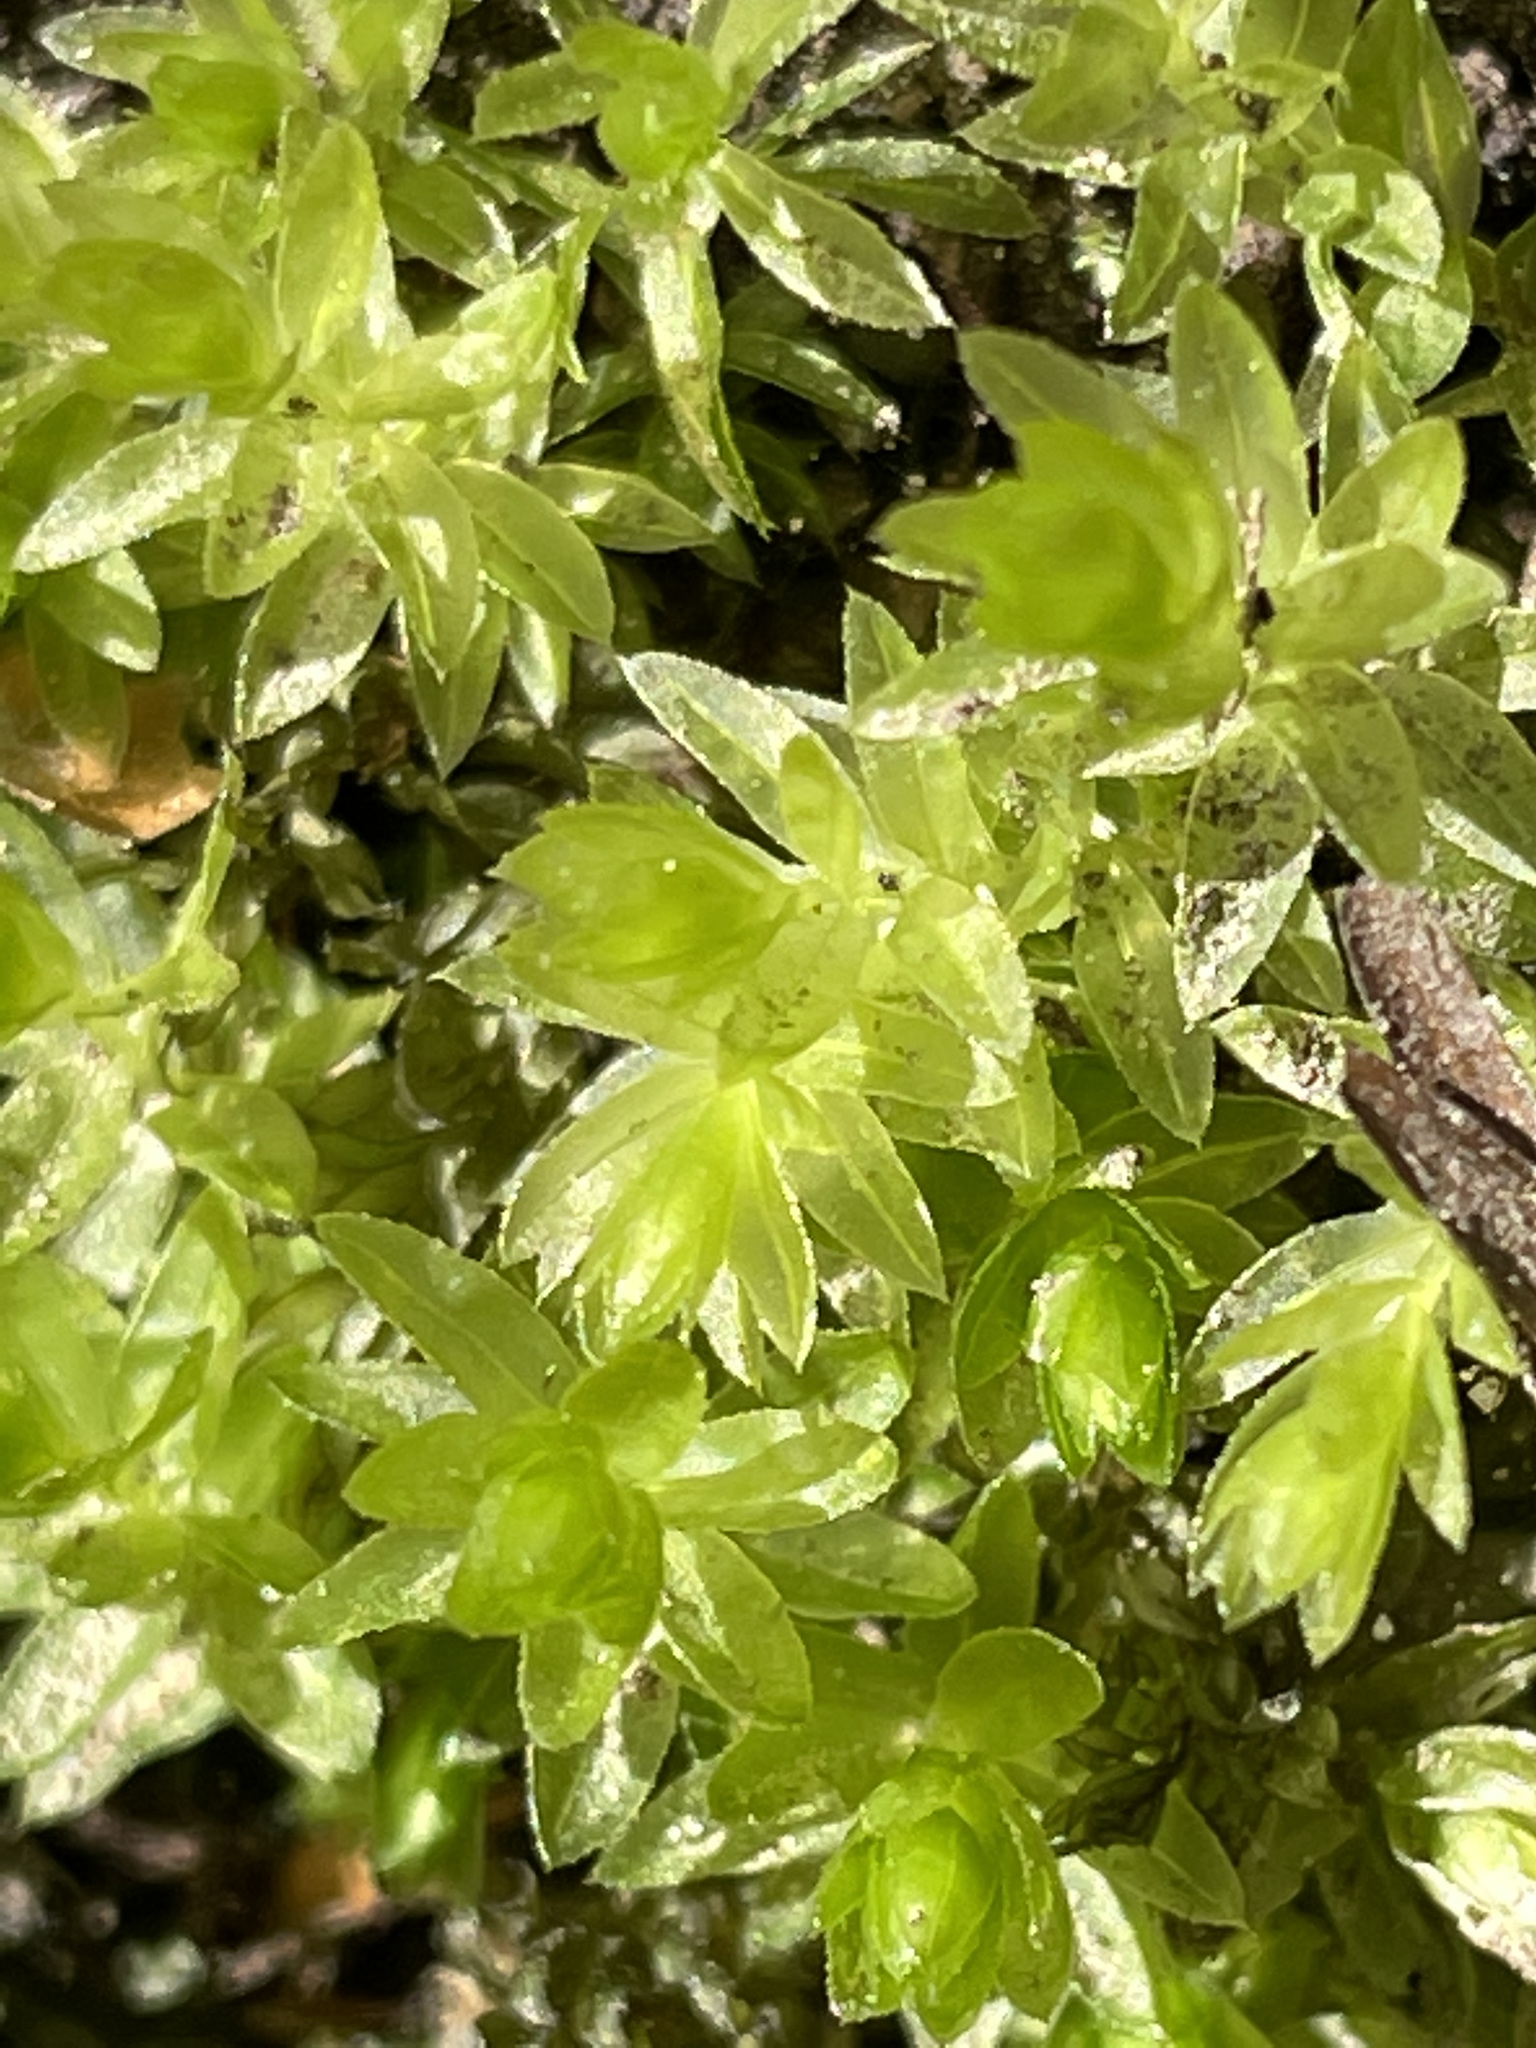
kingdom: Plantae
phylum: Bryophyta
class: Bryopsida
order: Bryales
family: Mniaceae
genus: Mnium
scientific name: Mnium hornum
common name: Swan's-neck leafy moss
